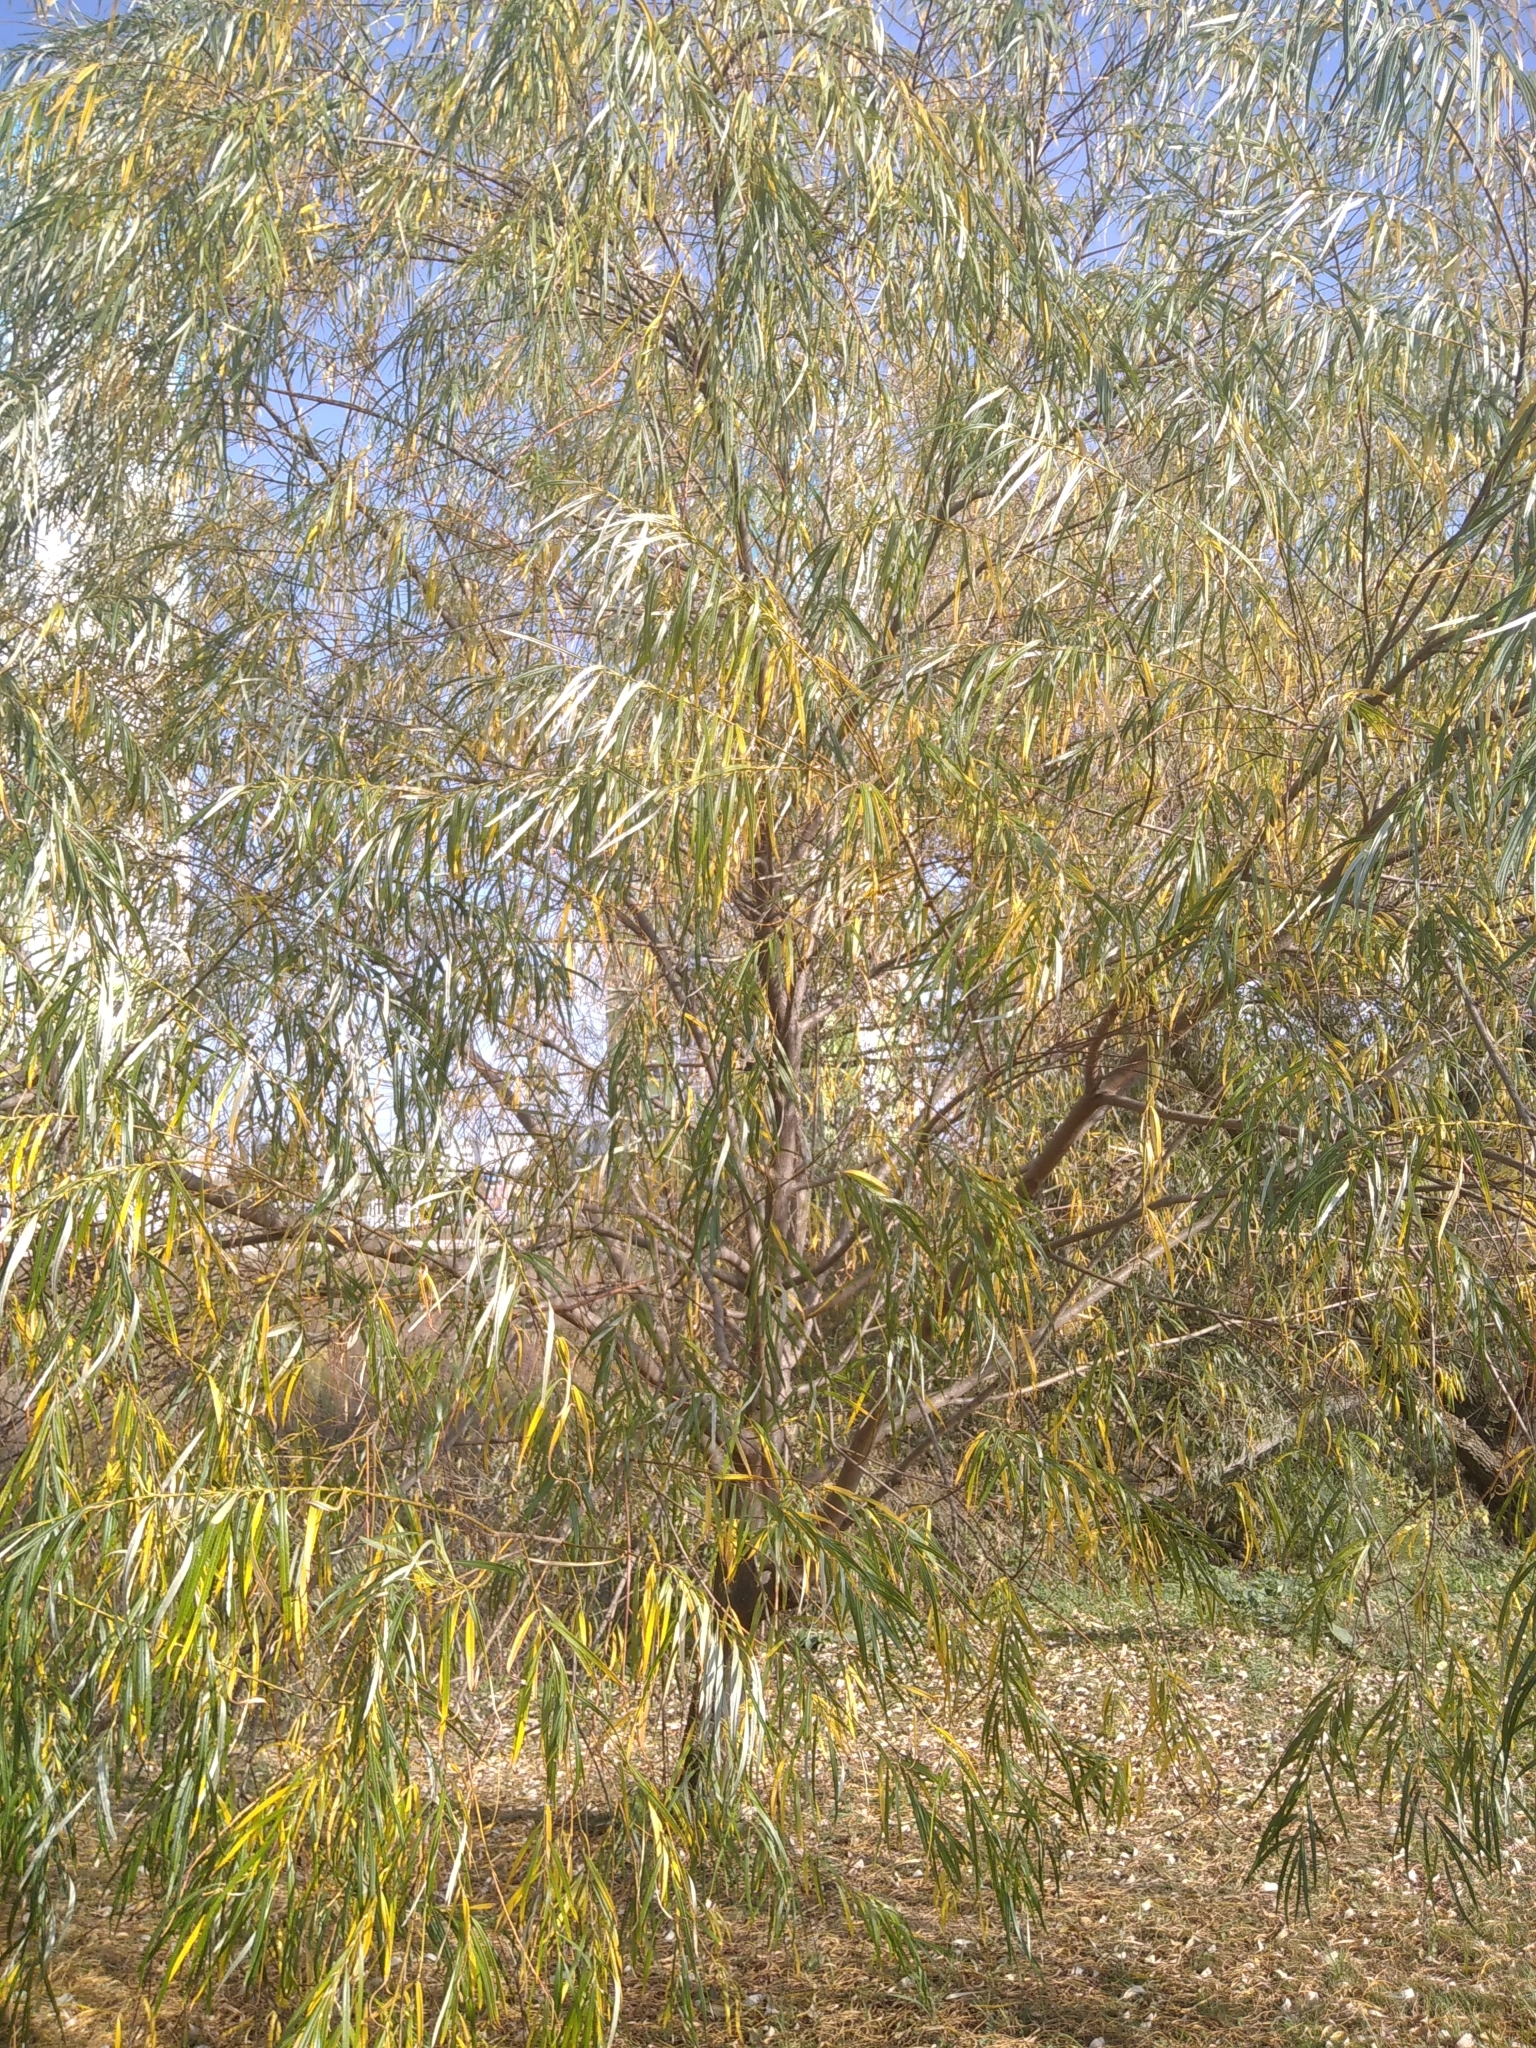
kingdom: Plantae
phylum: Tracheophyta
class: Magnoliopsida
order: Malpighiales
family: Salicaceae
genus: Salix
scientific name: Salix viminalis
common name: Osier
